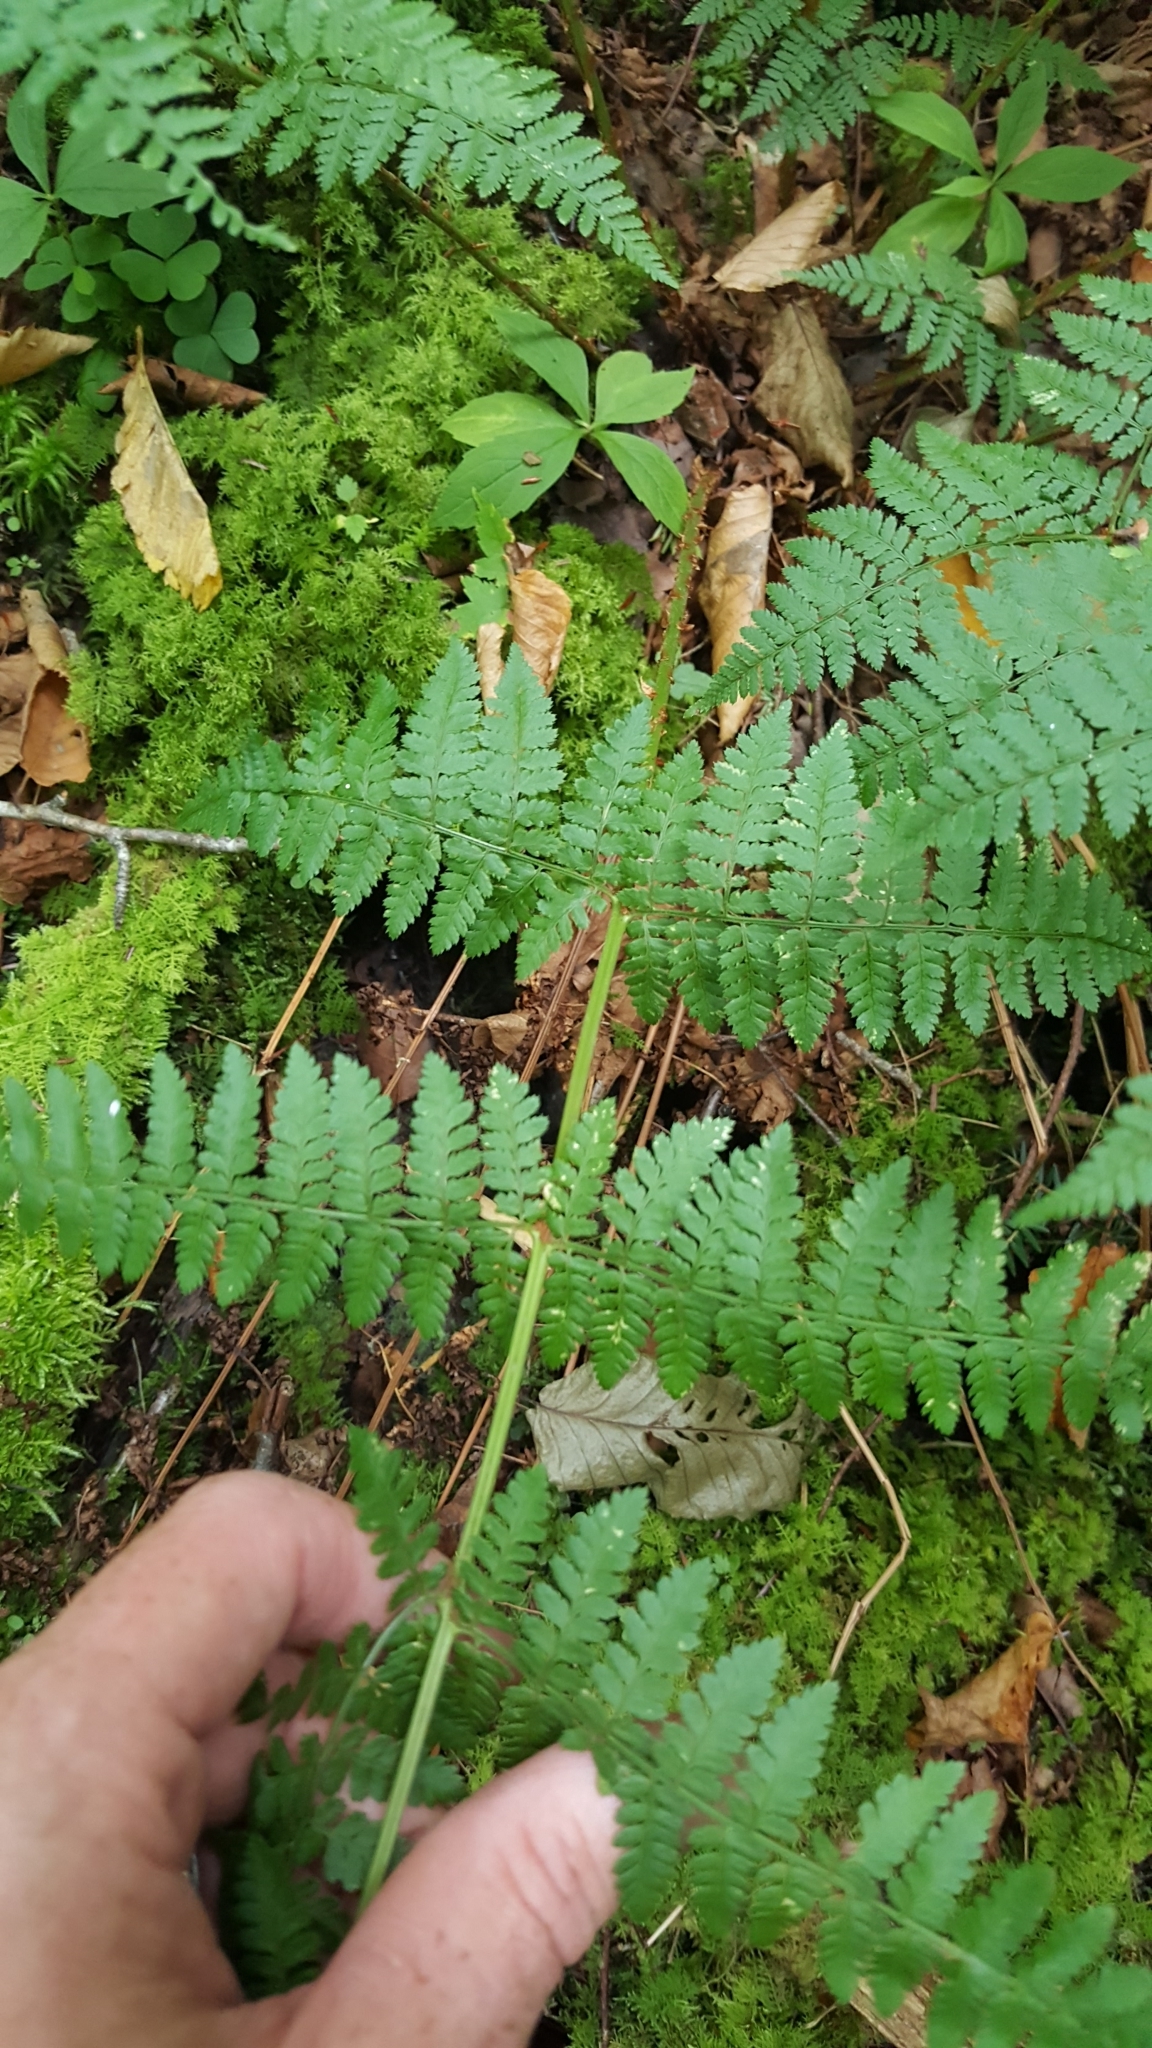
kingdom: Plantae
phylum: Tracheophyta
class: Polypodiopsida
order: Polypodiales
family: Dryopteridaceae
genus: Dryopteris
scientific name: Dryopteris intermedia
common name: Evergreen wood fern
